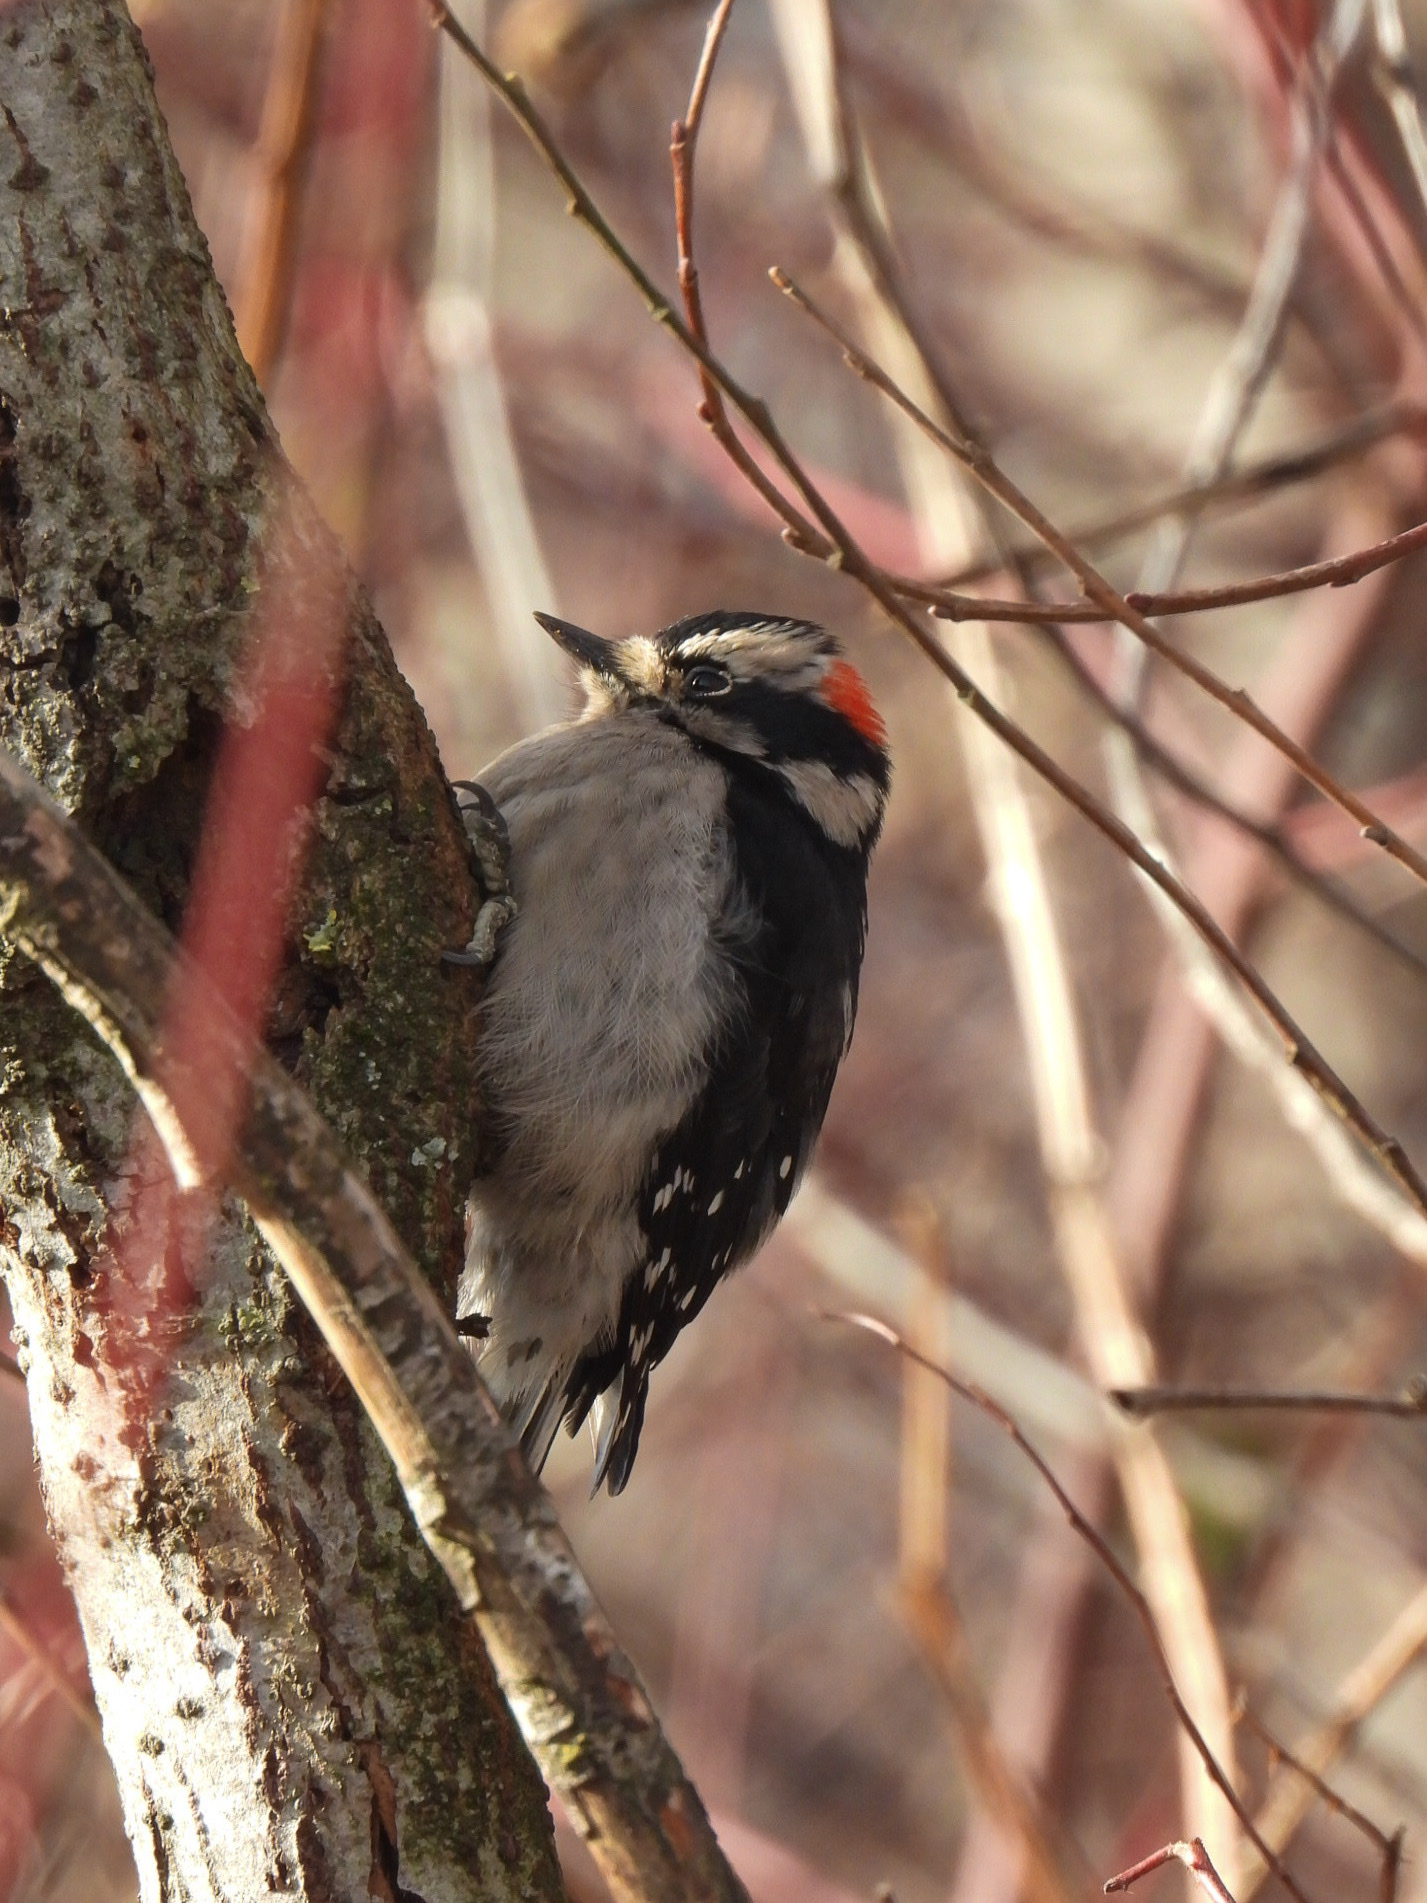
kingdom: Animalia
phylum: Chordata
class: Aves
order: Piciformes
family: Picidae
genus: Dryobates
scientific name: Dryobates pubescens
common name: Downy woodpecker
